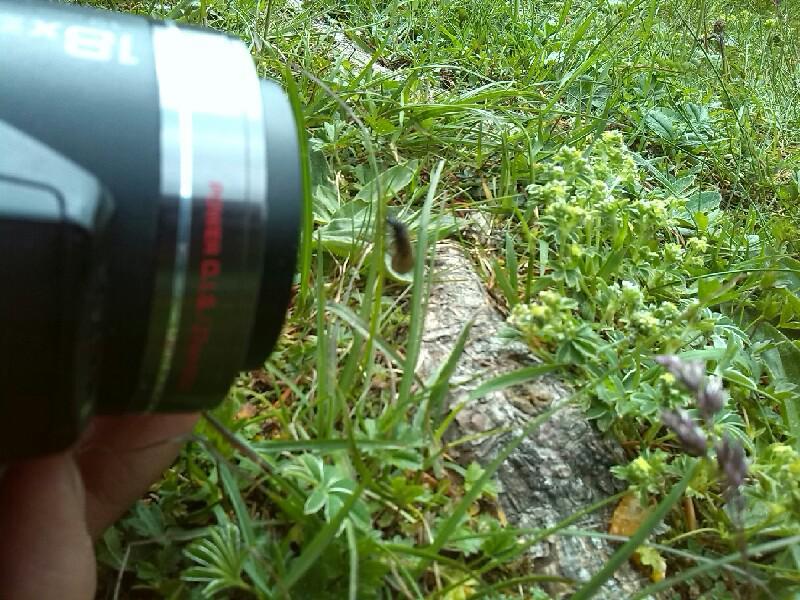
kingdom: Animalia
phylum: Arthropoda
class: Insecta
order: Megaloptera
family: Sialidae
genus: Sialis
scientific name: Sialis
